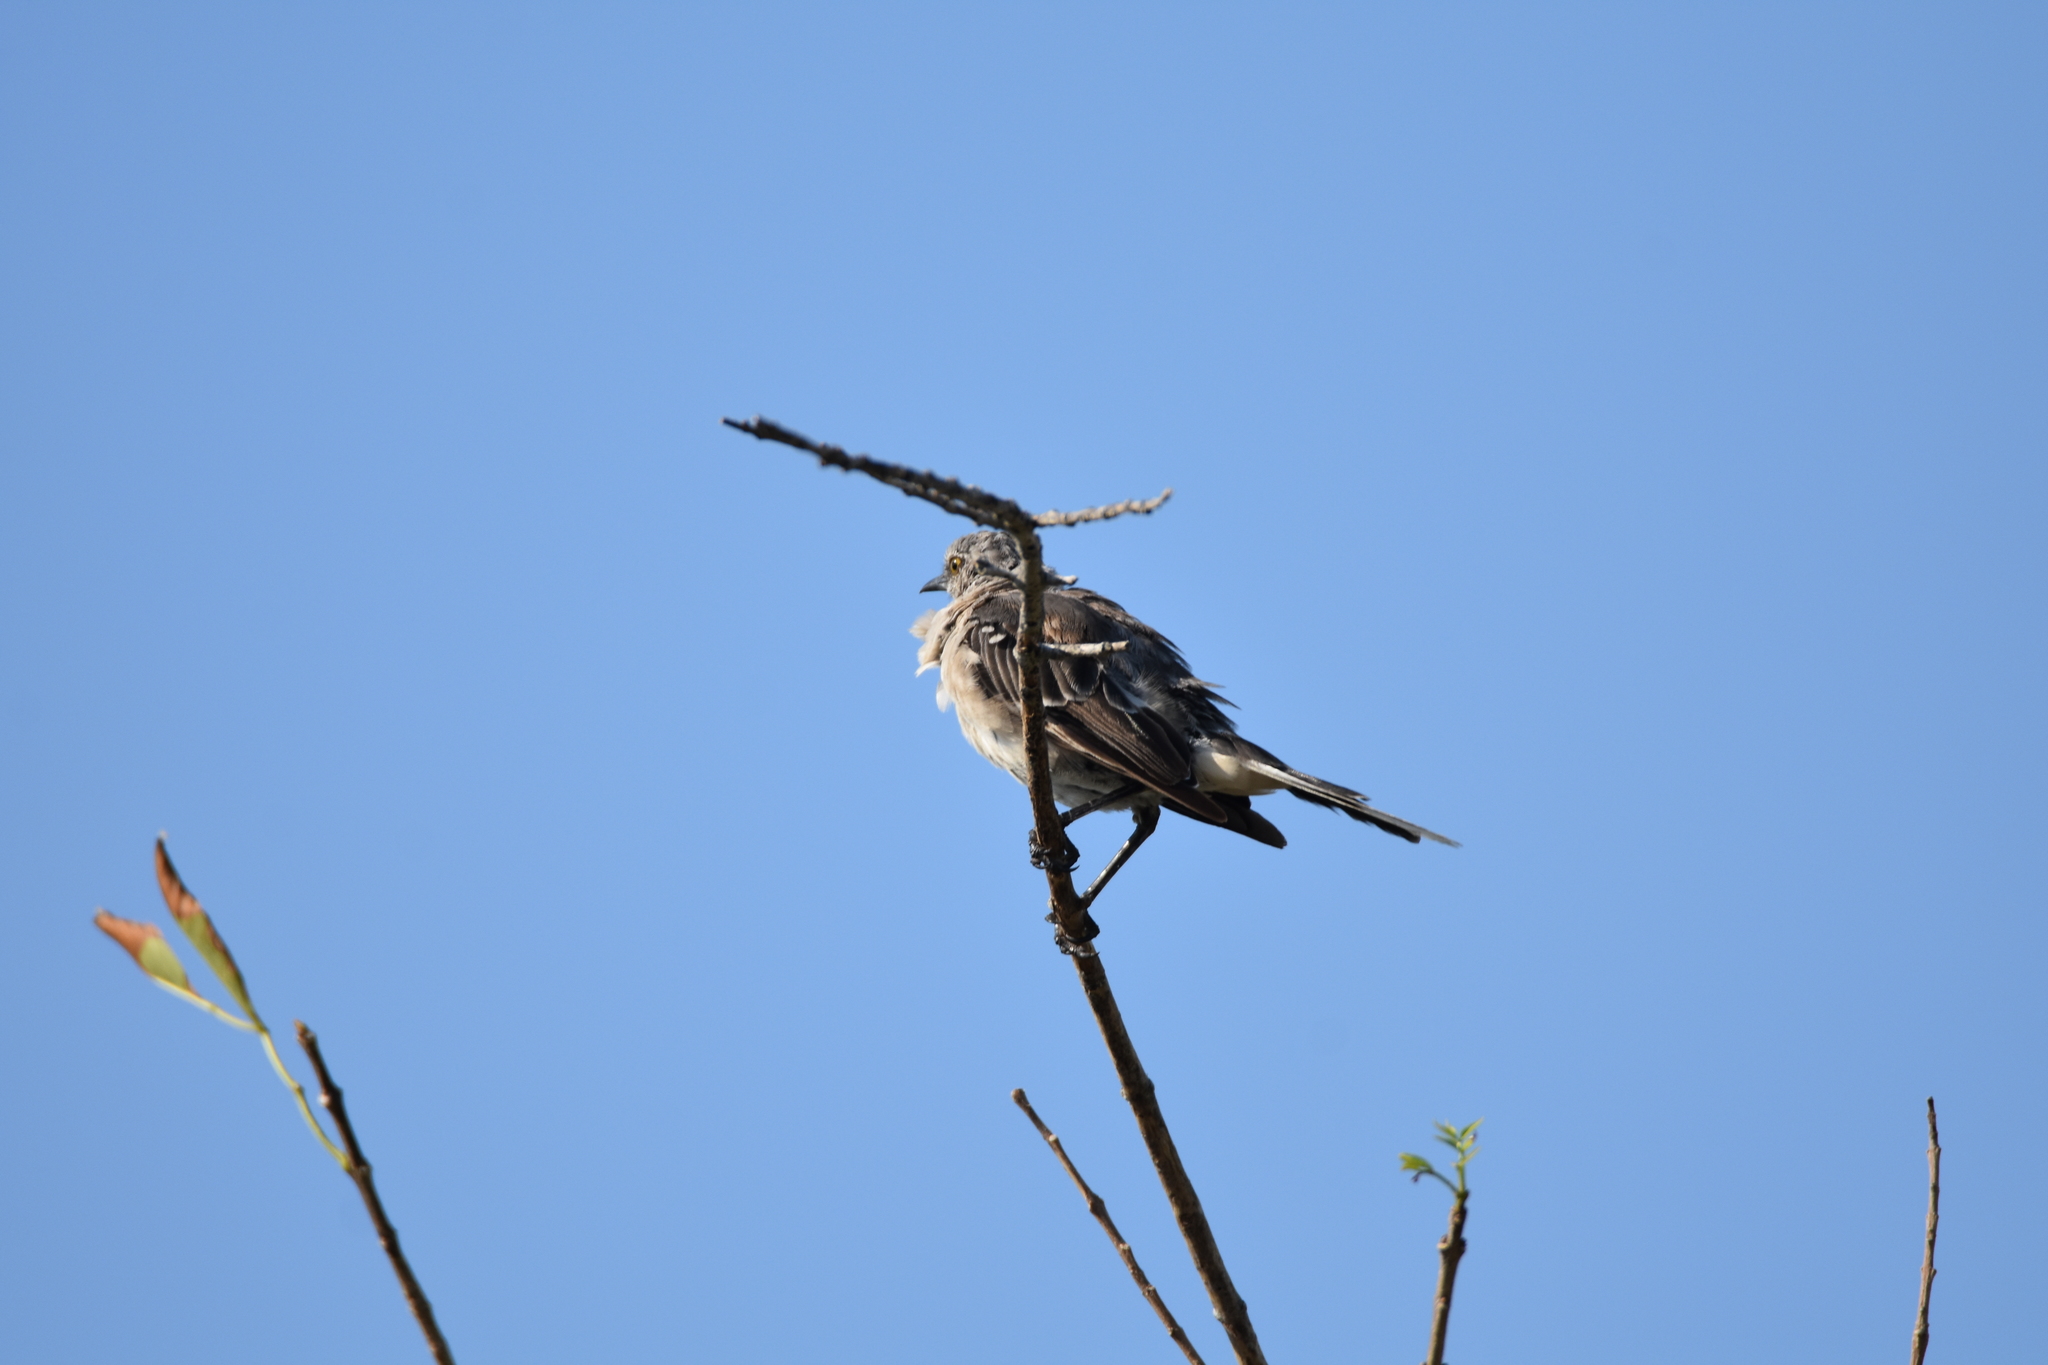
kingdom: Animalia
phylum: Chordata
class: Aves
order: Passeriformes
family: Mimidae
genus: Mimus
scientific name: Mimus polyglottos
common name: Northern mockingbird
